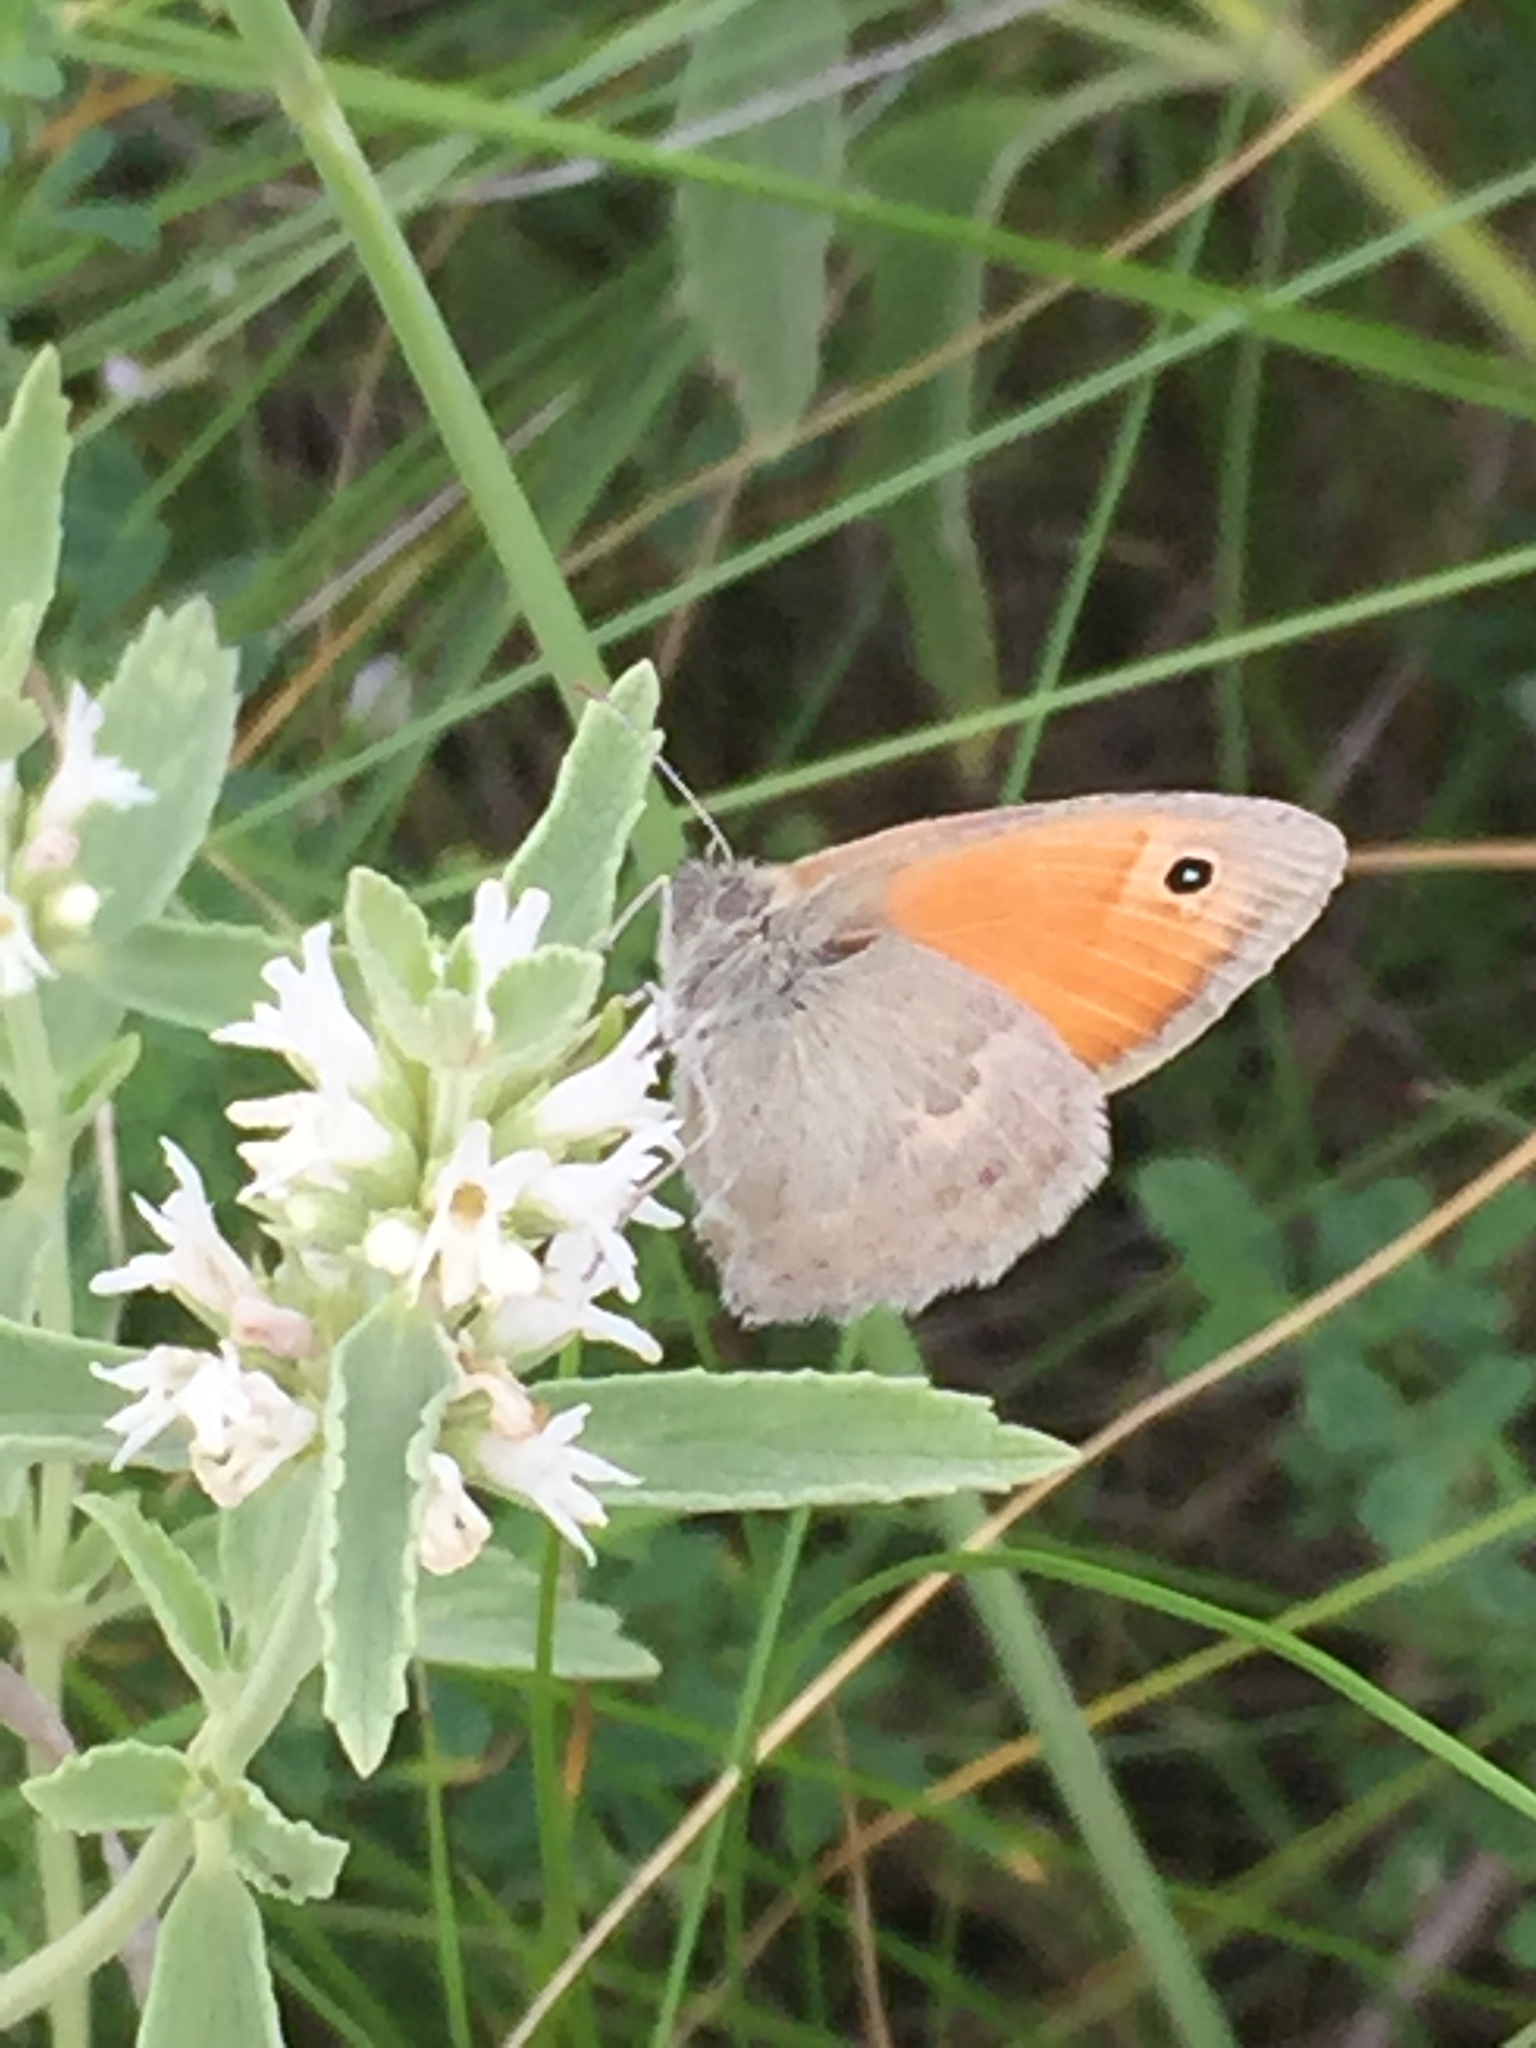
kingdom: Animalia
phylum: Arthropoda
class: Insecta
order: Lepidoptera
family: Nymphalidae
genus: Coenonympha
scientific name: Coenonympha pamphilus
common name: Small heath
